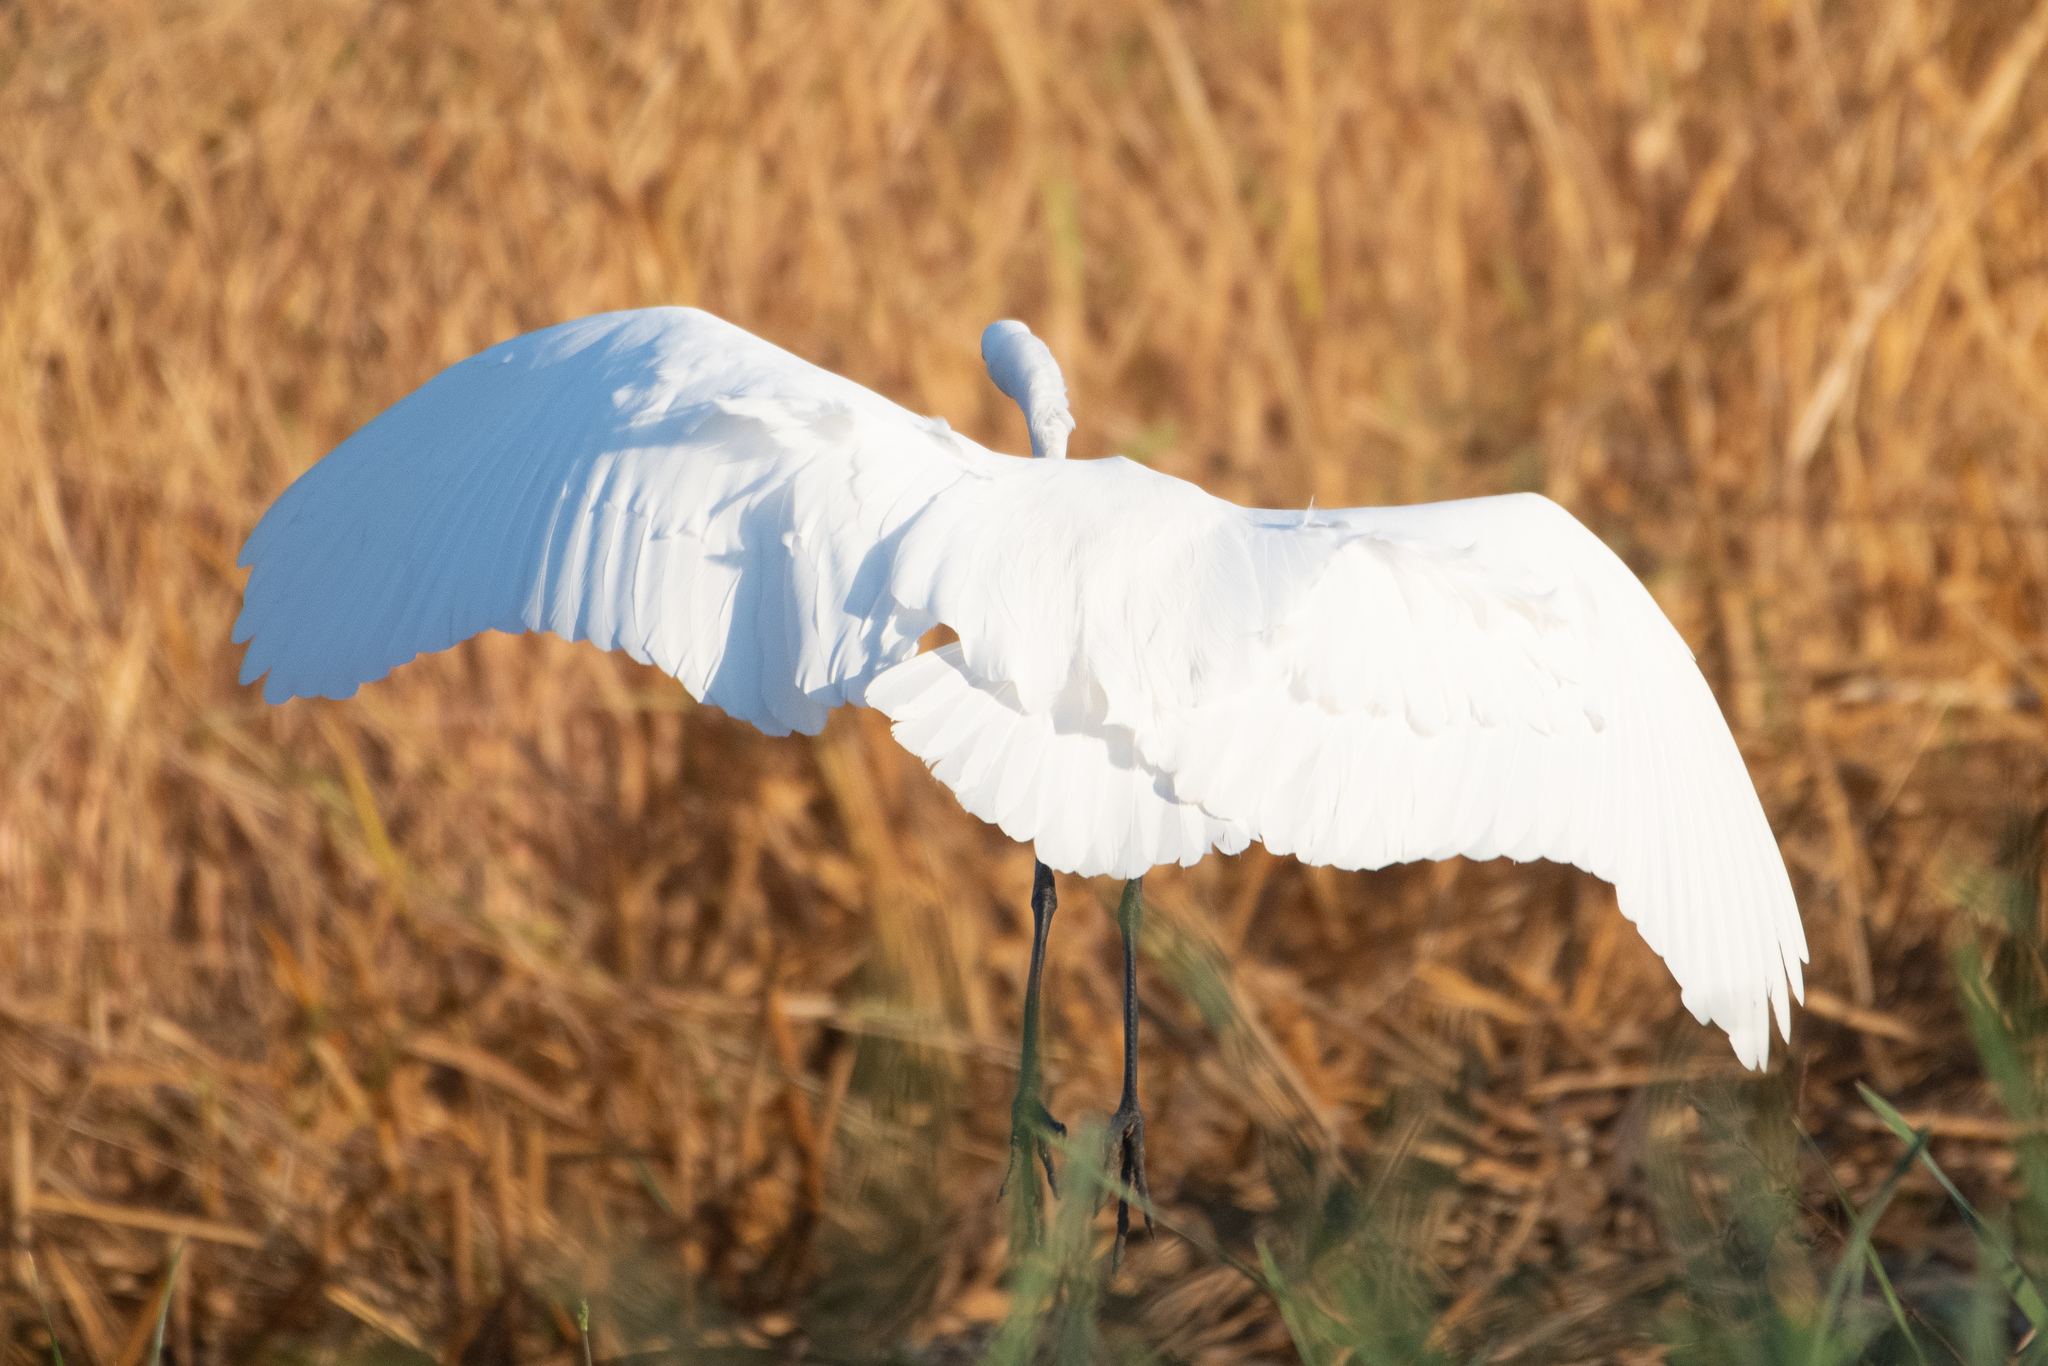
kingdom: Animalia
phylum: Chordata
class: Aves
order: Pelecaniformes
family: Ardeidae
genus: Ardea
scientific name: Ardea alba
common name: Great egret
